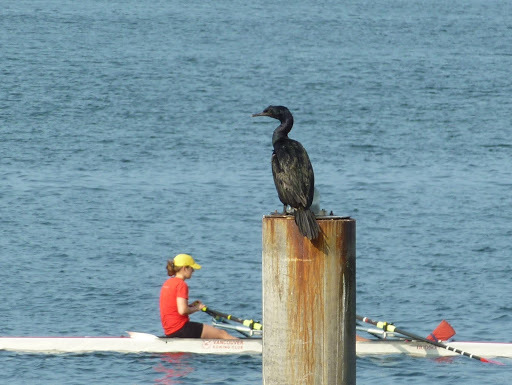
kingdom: Animalia
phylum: Chordata
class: Aves
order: Suliformes
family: Phalacrocoracidae
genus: Phalacrocorax
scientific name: Phalacrocorax pelagicus
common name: Pelagic cormorant
